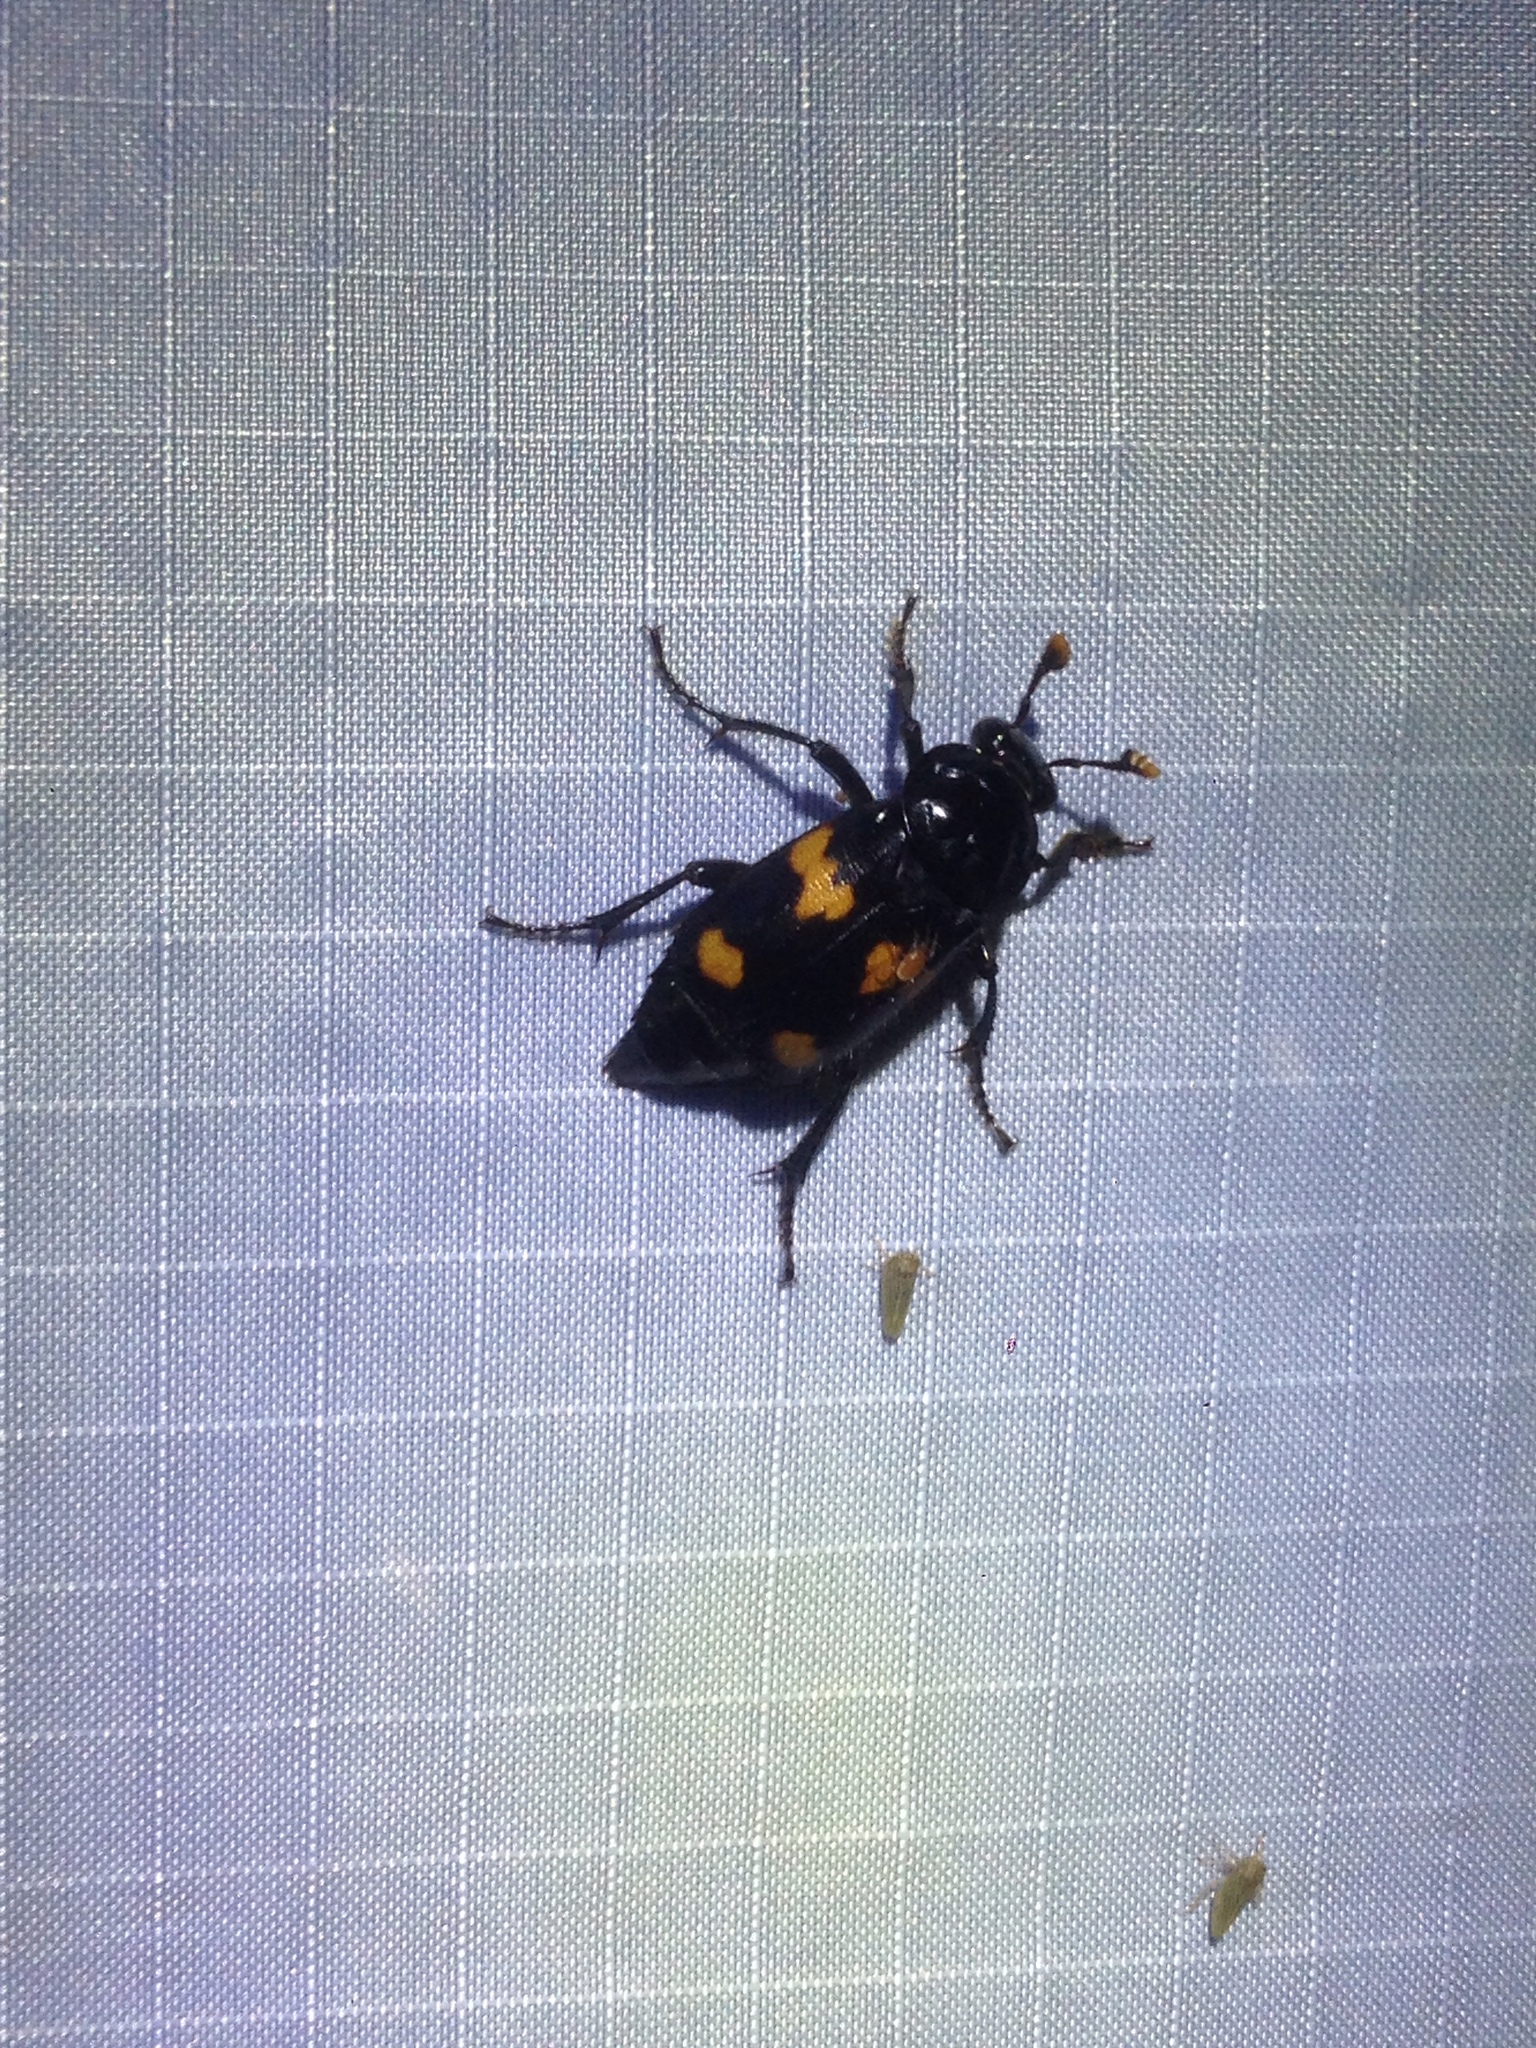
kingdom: Animalia
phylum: Arthropoda
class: Insecta
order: Coleoptera
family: Staphylinidae
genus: Nicrophorus
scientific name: Nicrophorus orbicollis
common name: Roundneck sexton beetle
